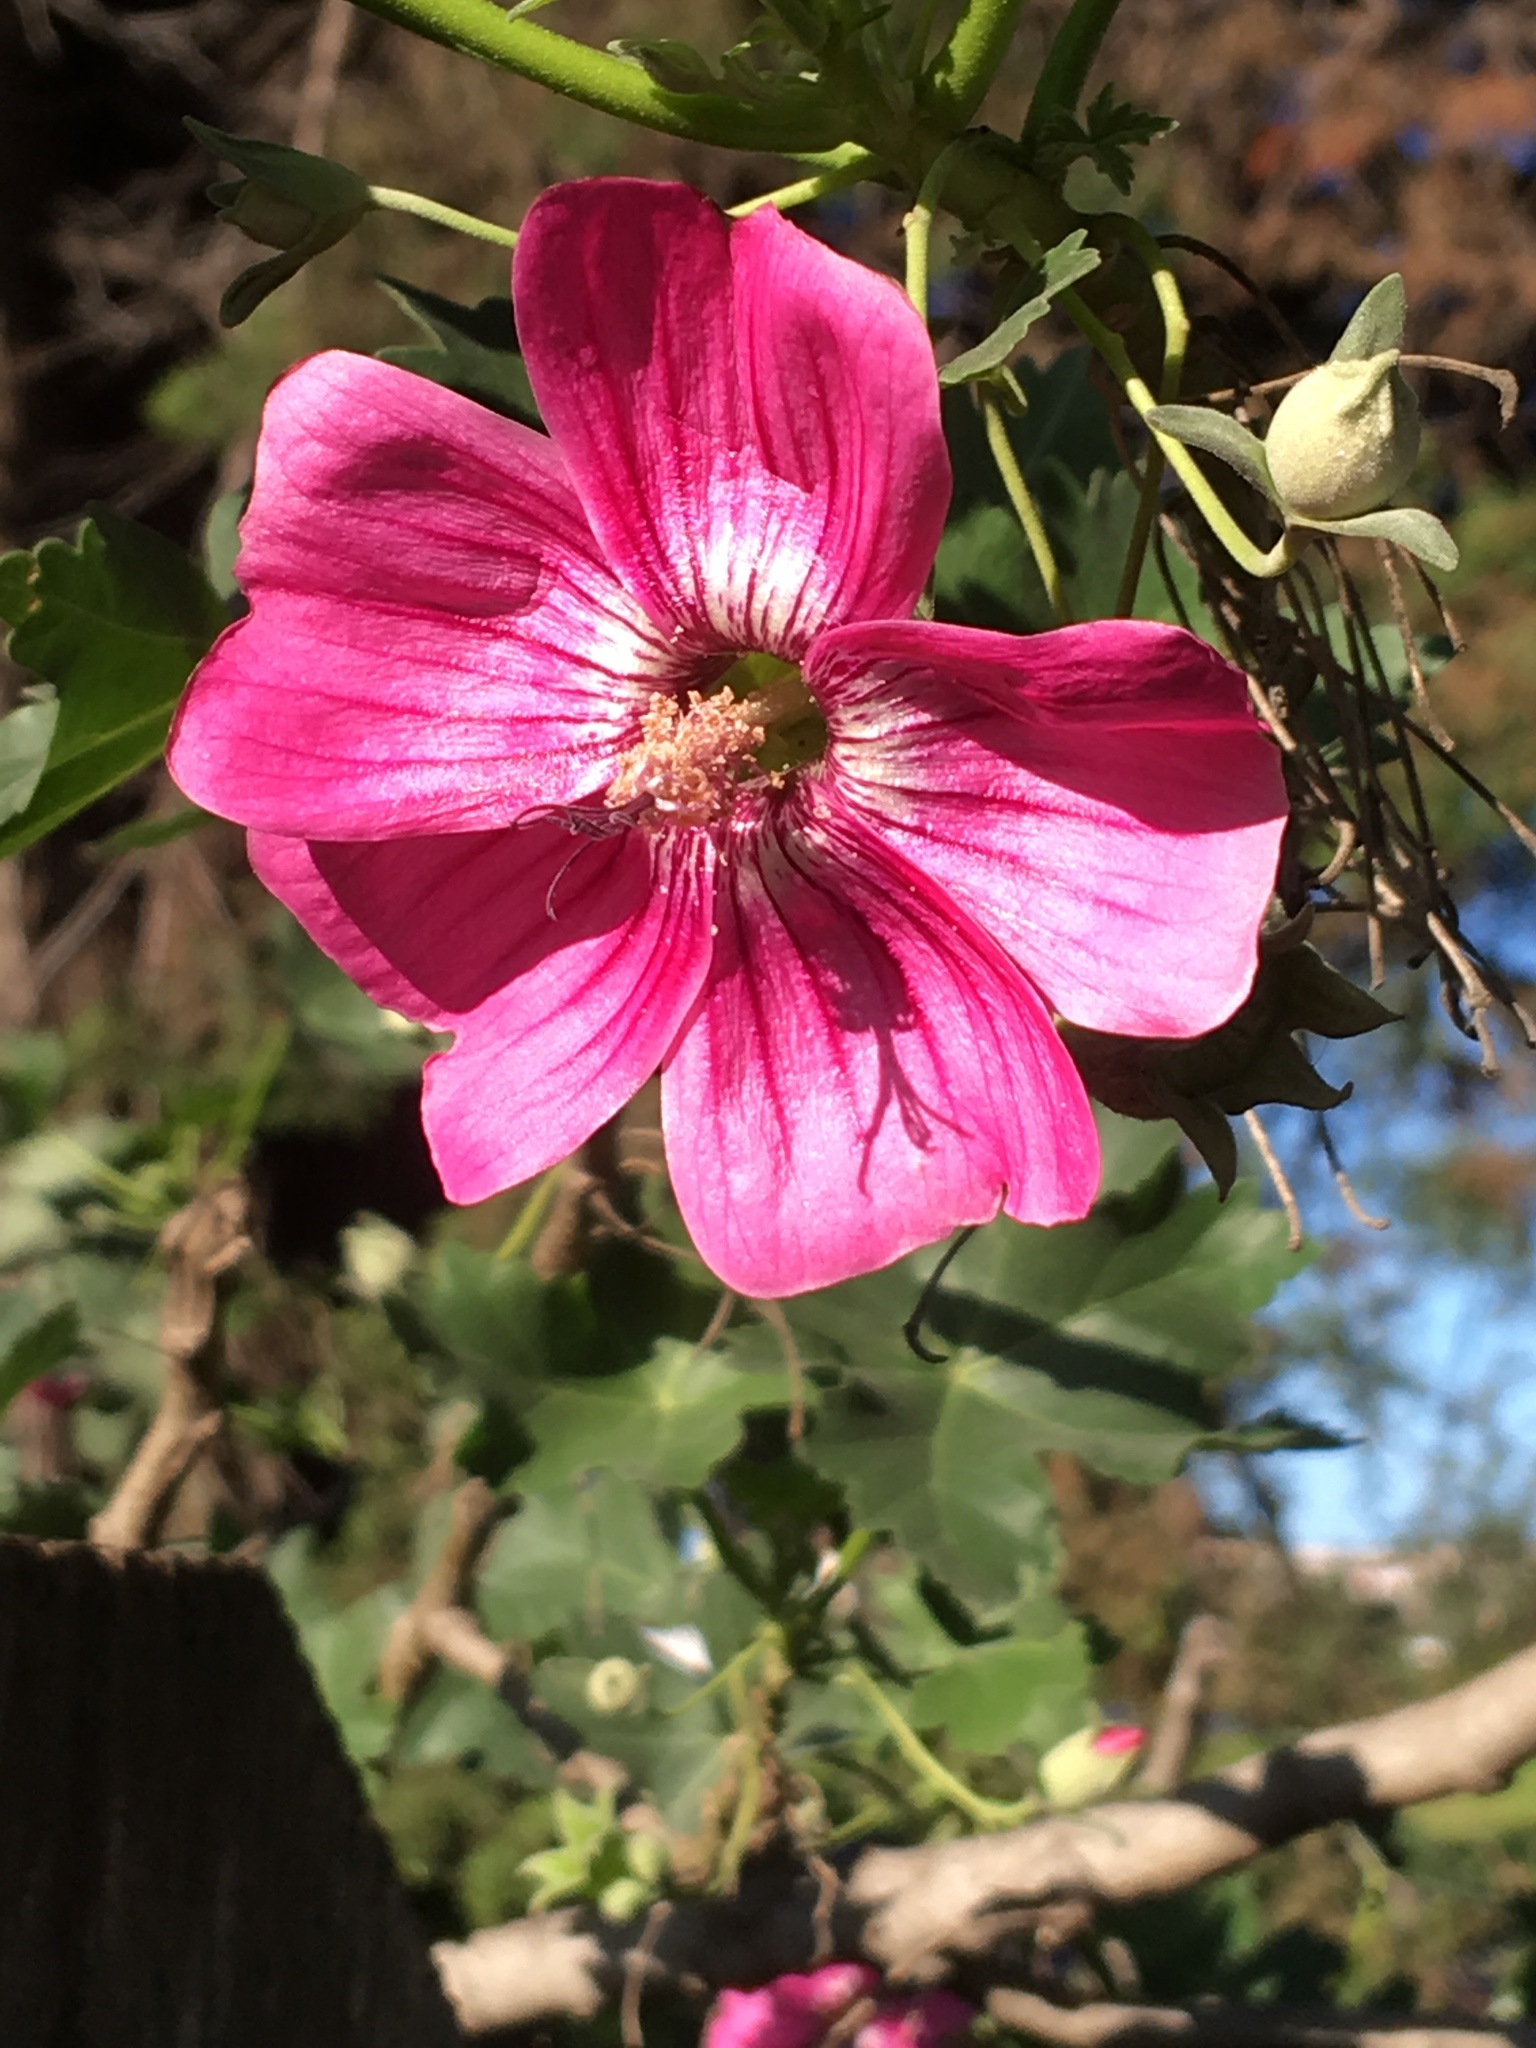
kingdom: Plantae
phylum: Tracheophyta
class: Magnoliopsida
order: Malvales
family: Malvaceae
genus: Malva
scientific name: Malva assurgentiflora
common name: Island mallow
